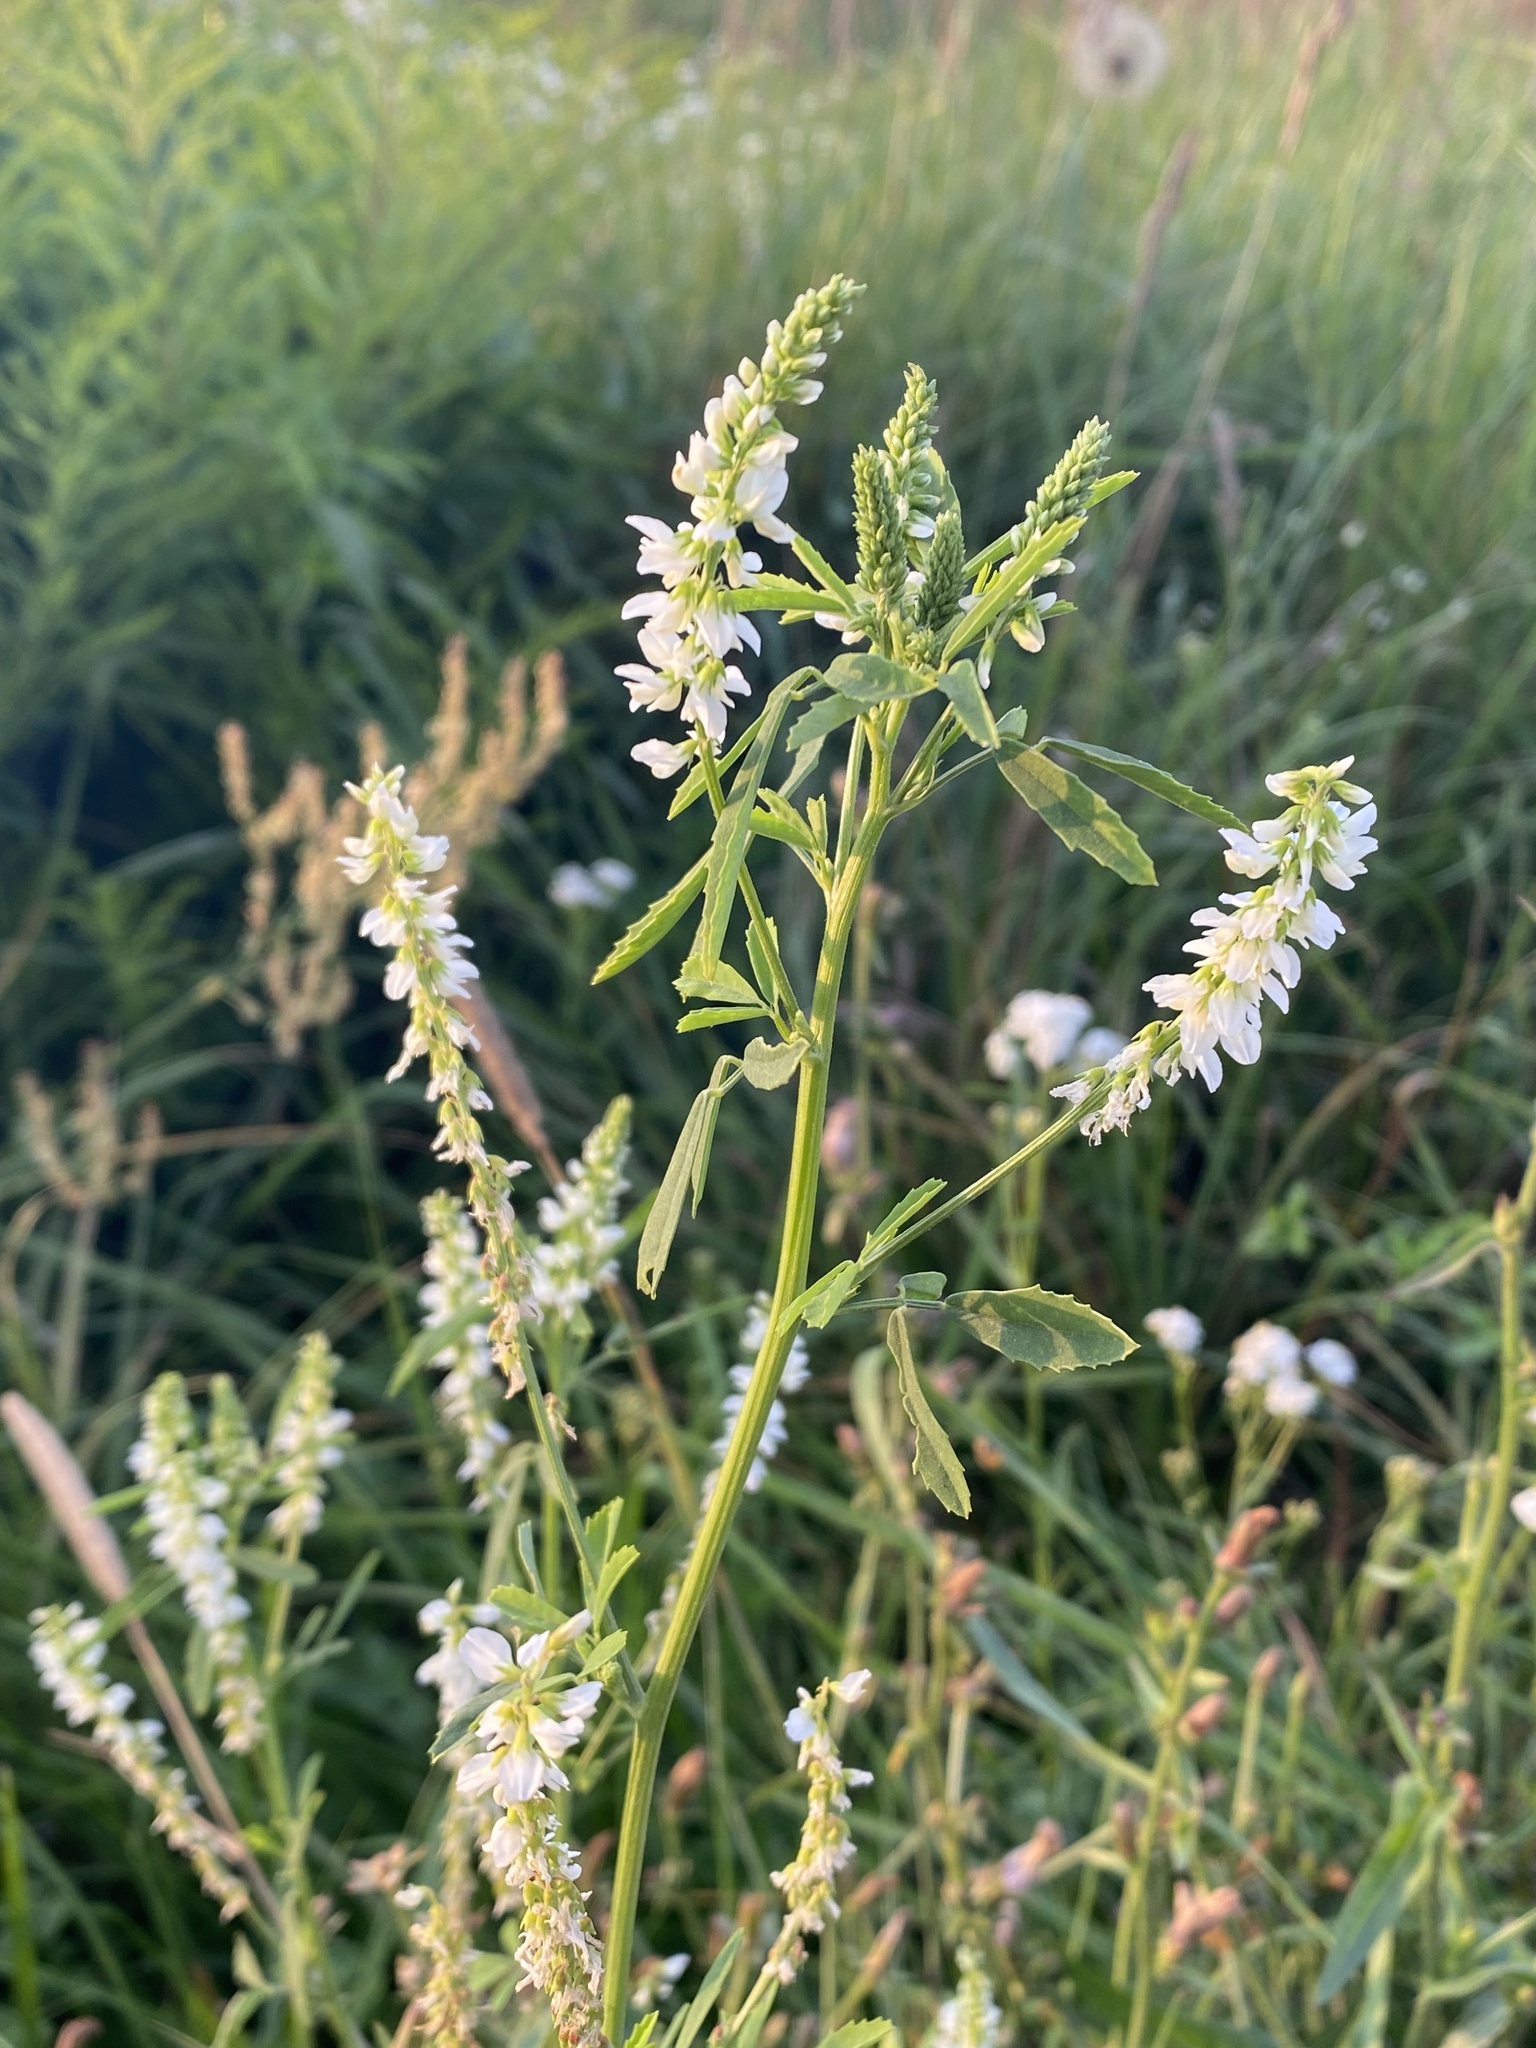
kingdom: Plantae
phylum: Tracheophyta
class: Magnoliopsida
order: Fabales
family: Fabaceae
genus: Melilotus
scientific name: Melilotus albus
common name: White melilot
